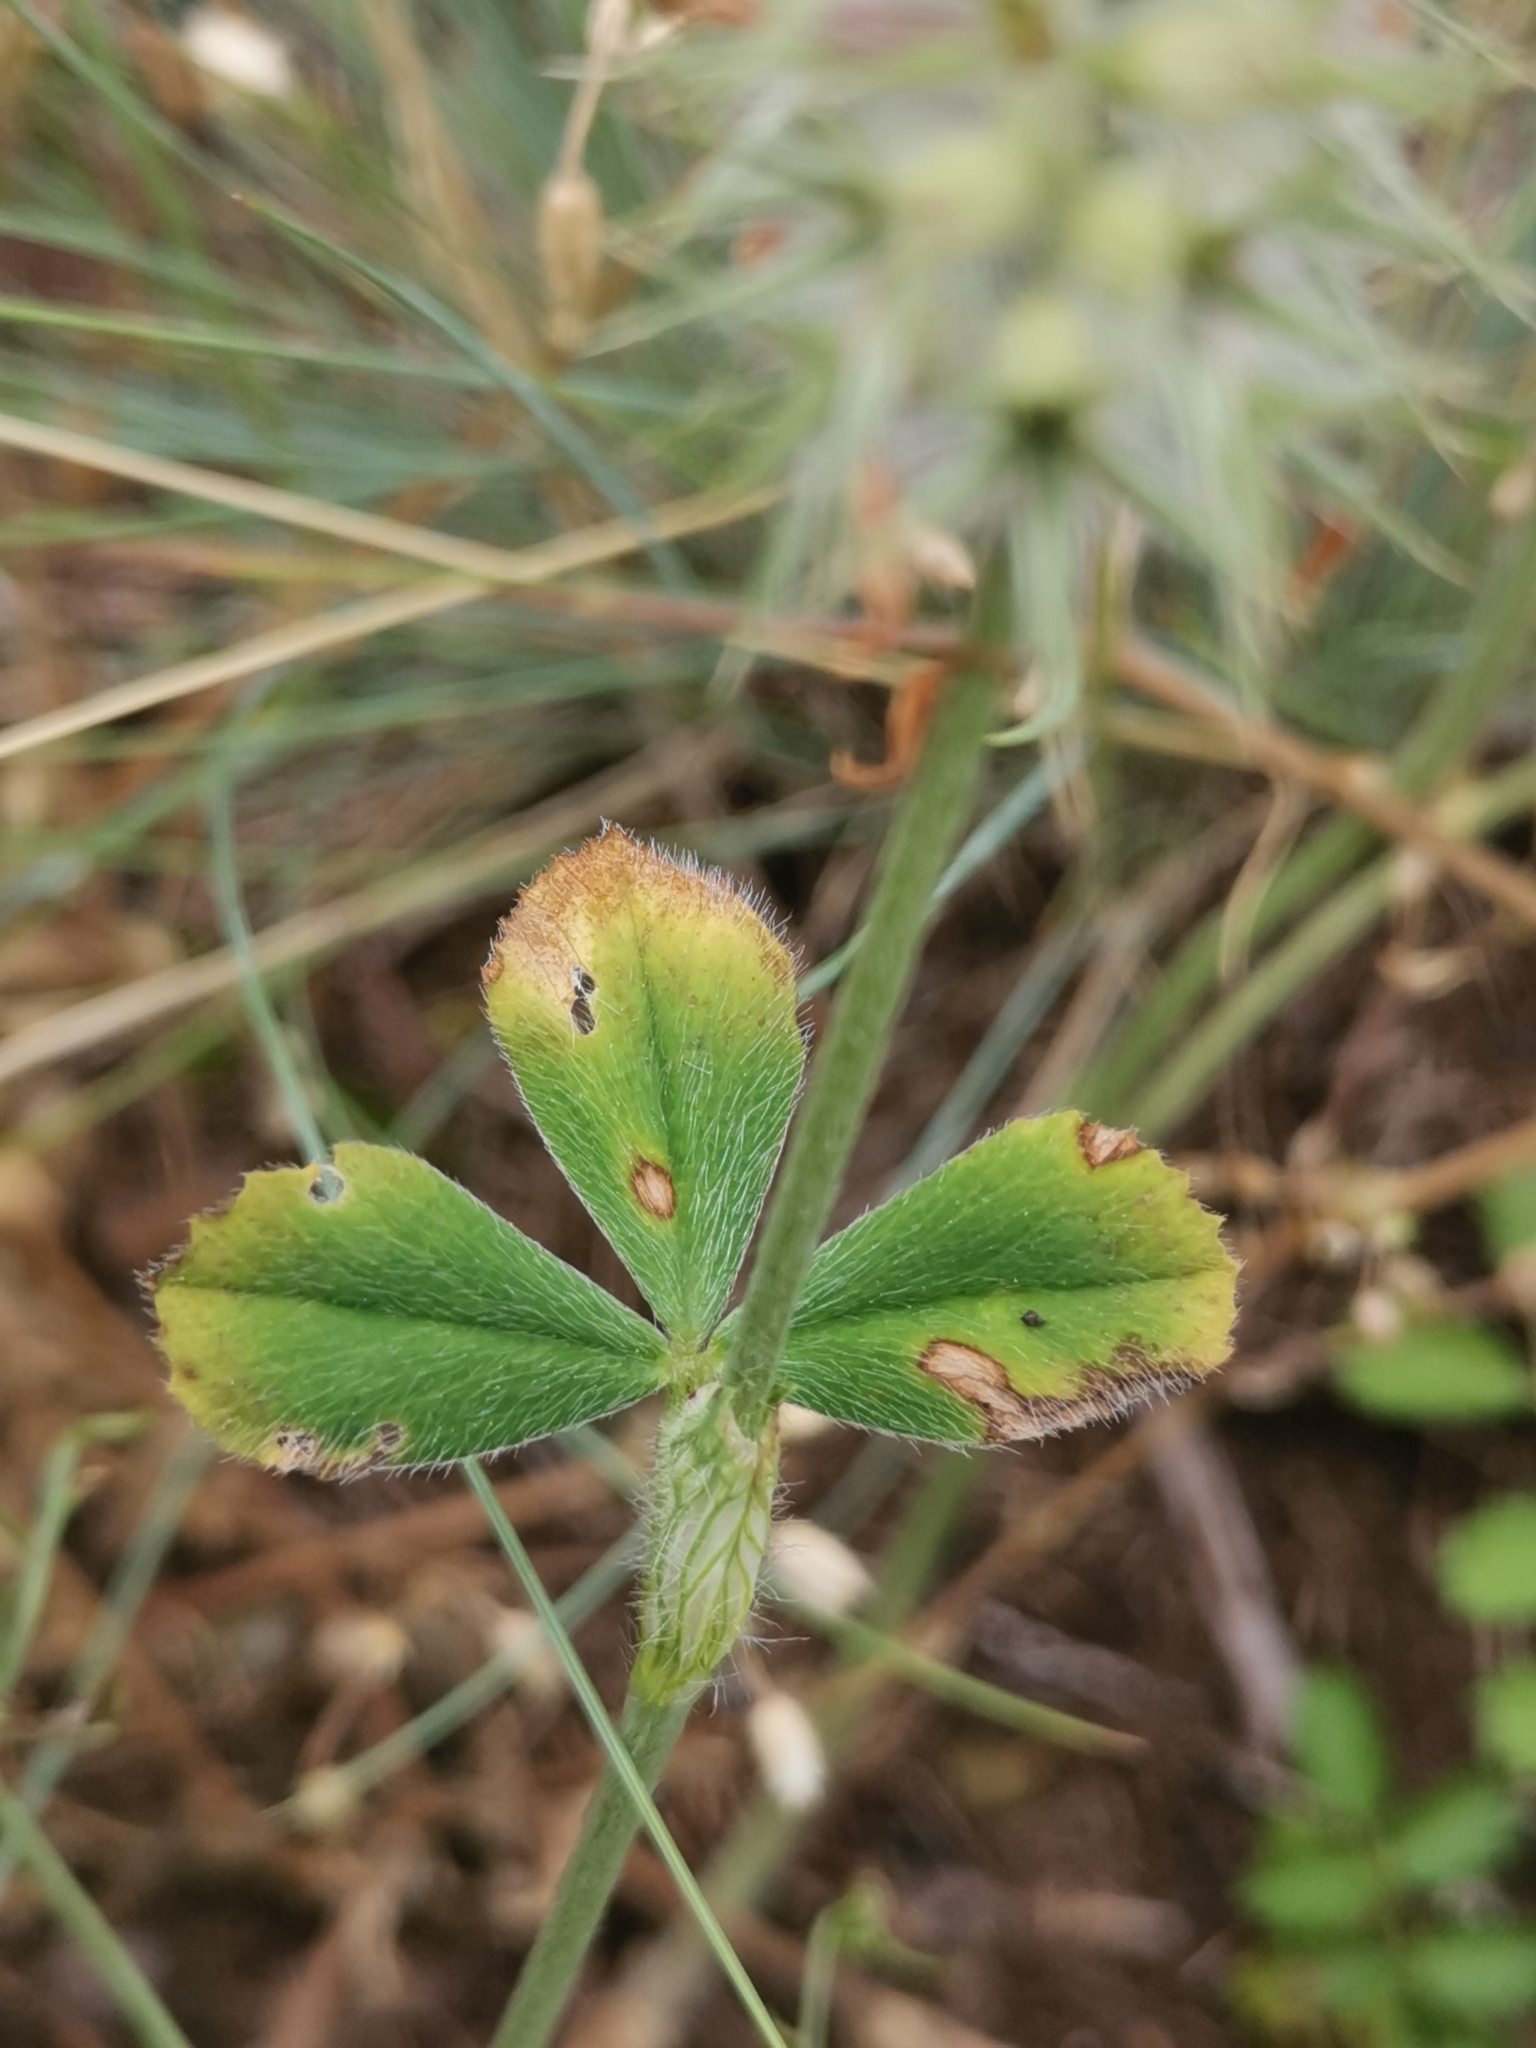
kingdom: Plantae
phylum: Tracheophyta
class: Magnoliopsida
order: Fabales
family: Fabaceae
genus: Trifolium
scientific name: Trifolium incarnatum
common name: Crimson clover
